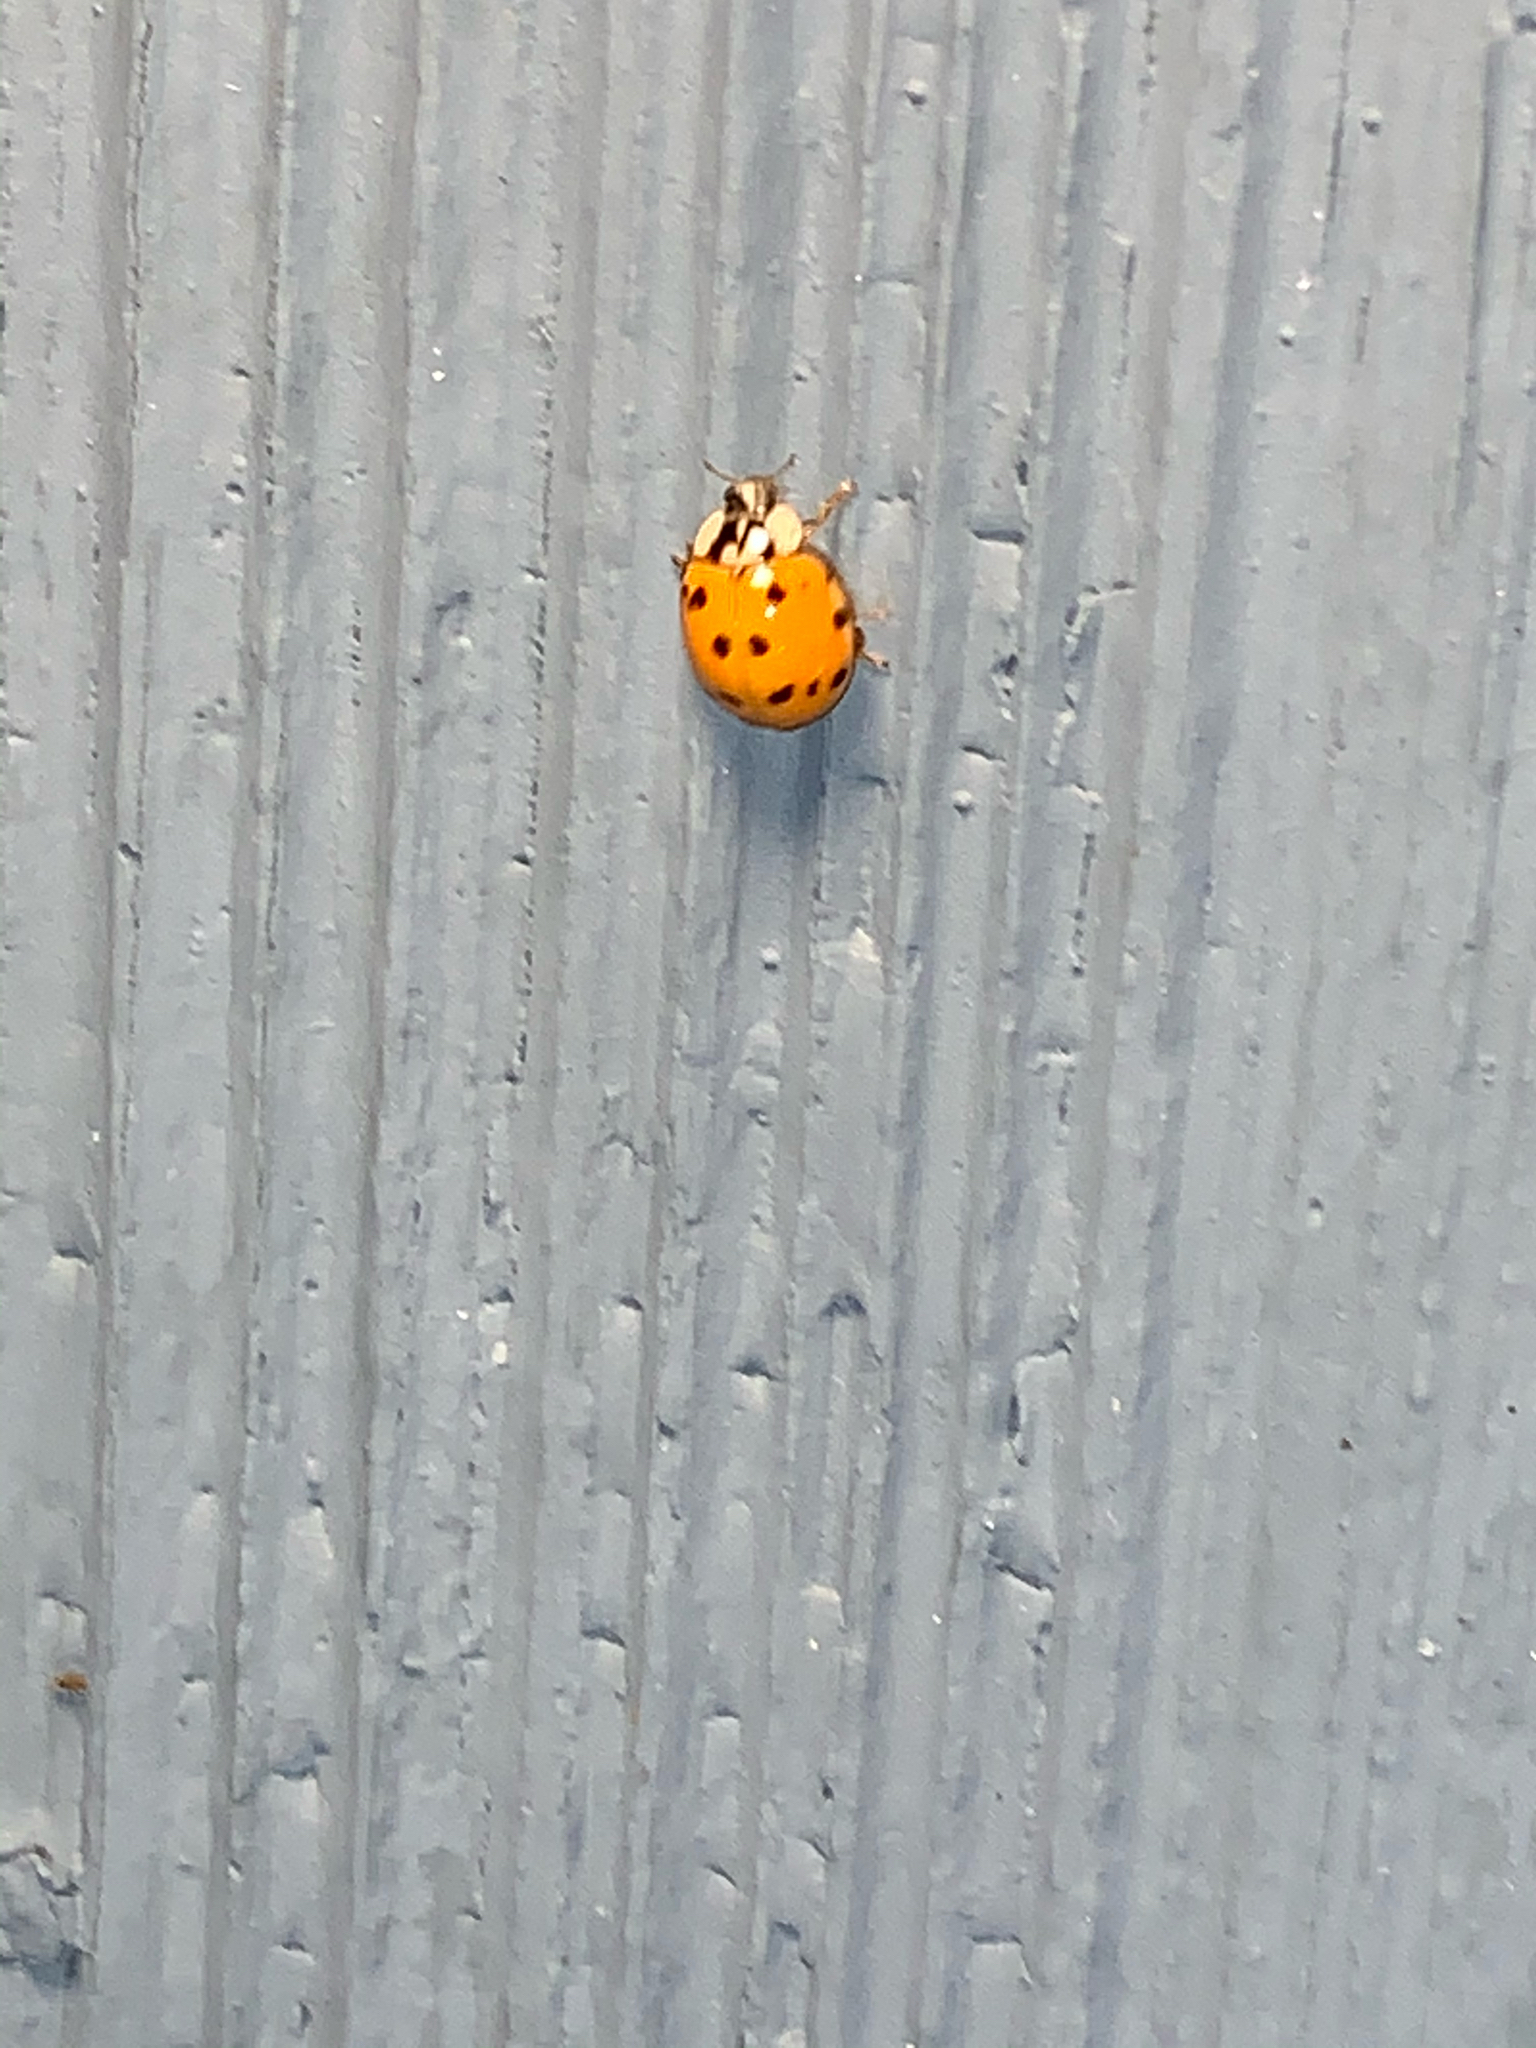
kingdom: Animalia
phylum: Arthropoda
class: Insecta
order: Coleoptera
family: Coccinellidae
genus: Harmonia
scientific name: Harmonia axyridis
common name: Harlequin ladybird
